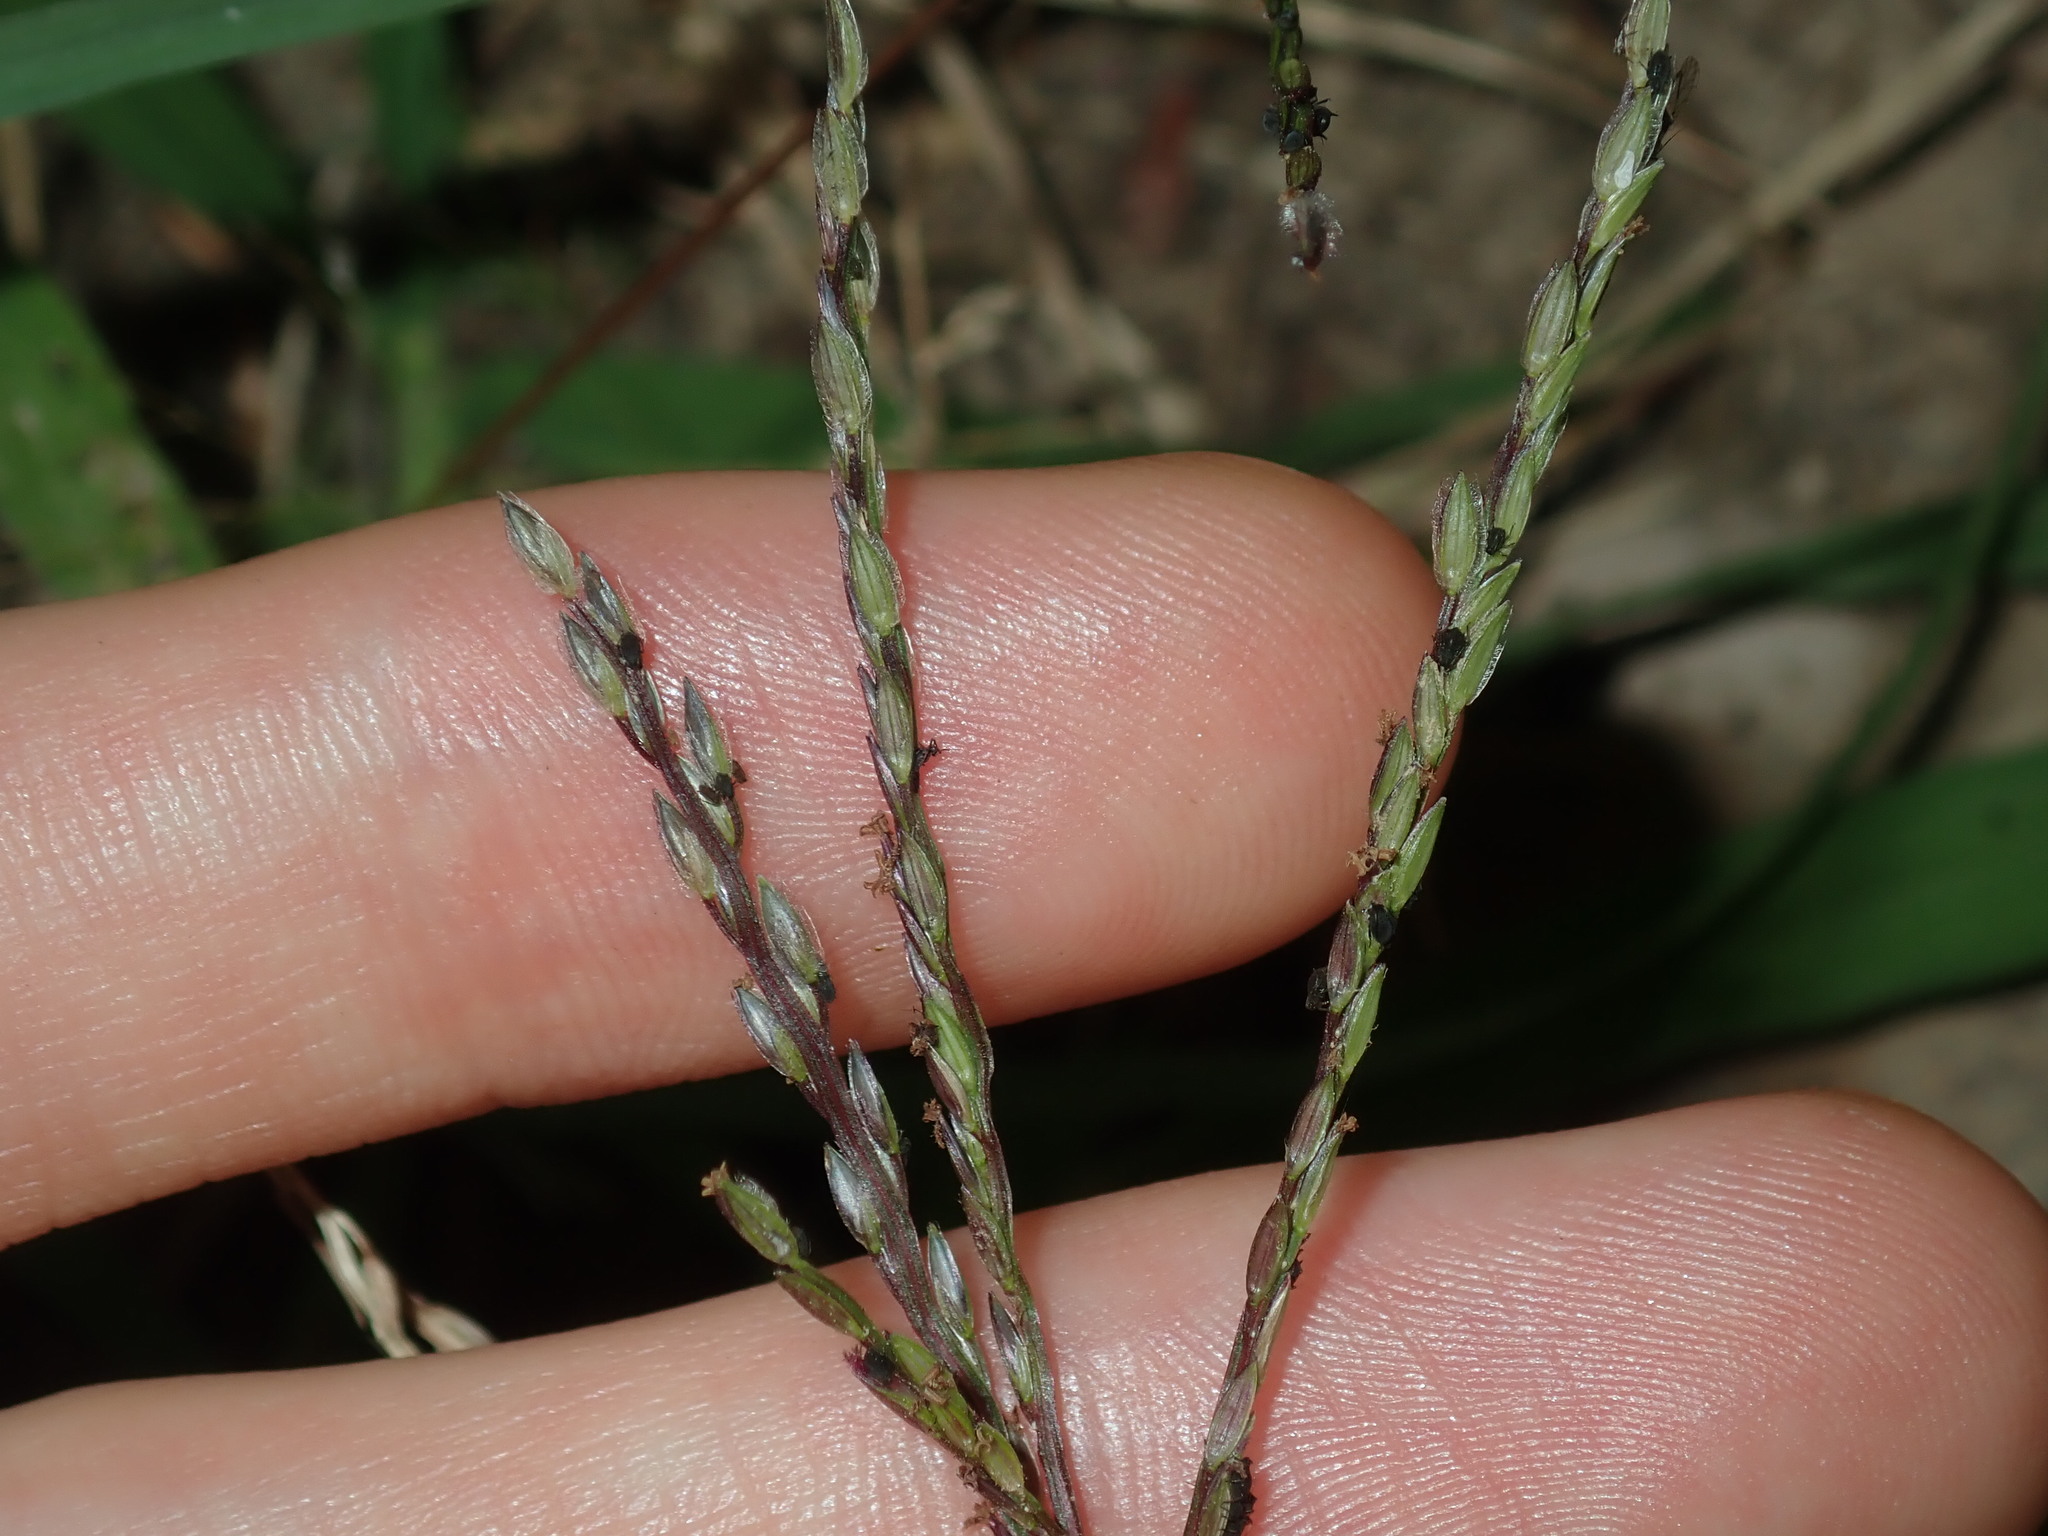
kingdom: Plantae
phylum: Tracheophyta
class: Liliopsida
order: Poales
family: Poaceae
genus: Digitaria
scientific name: Digitaria sanguinalis
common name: Hairy crabgrass
